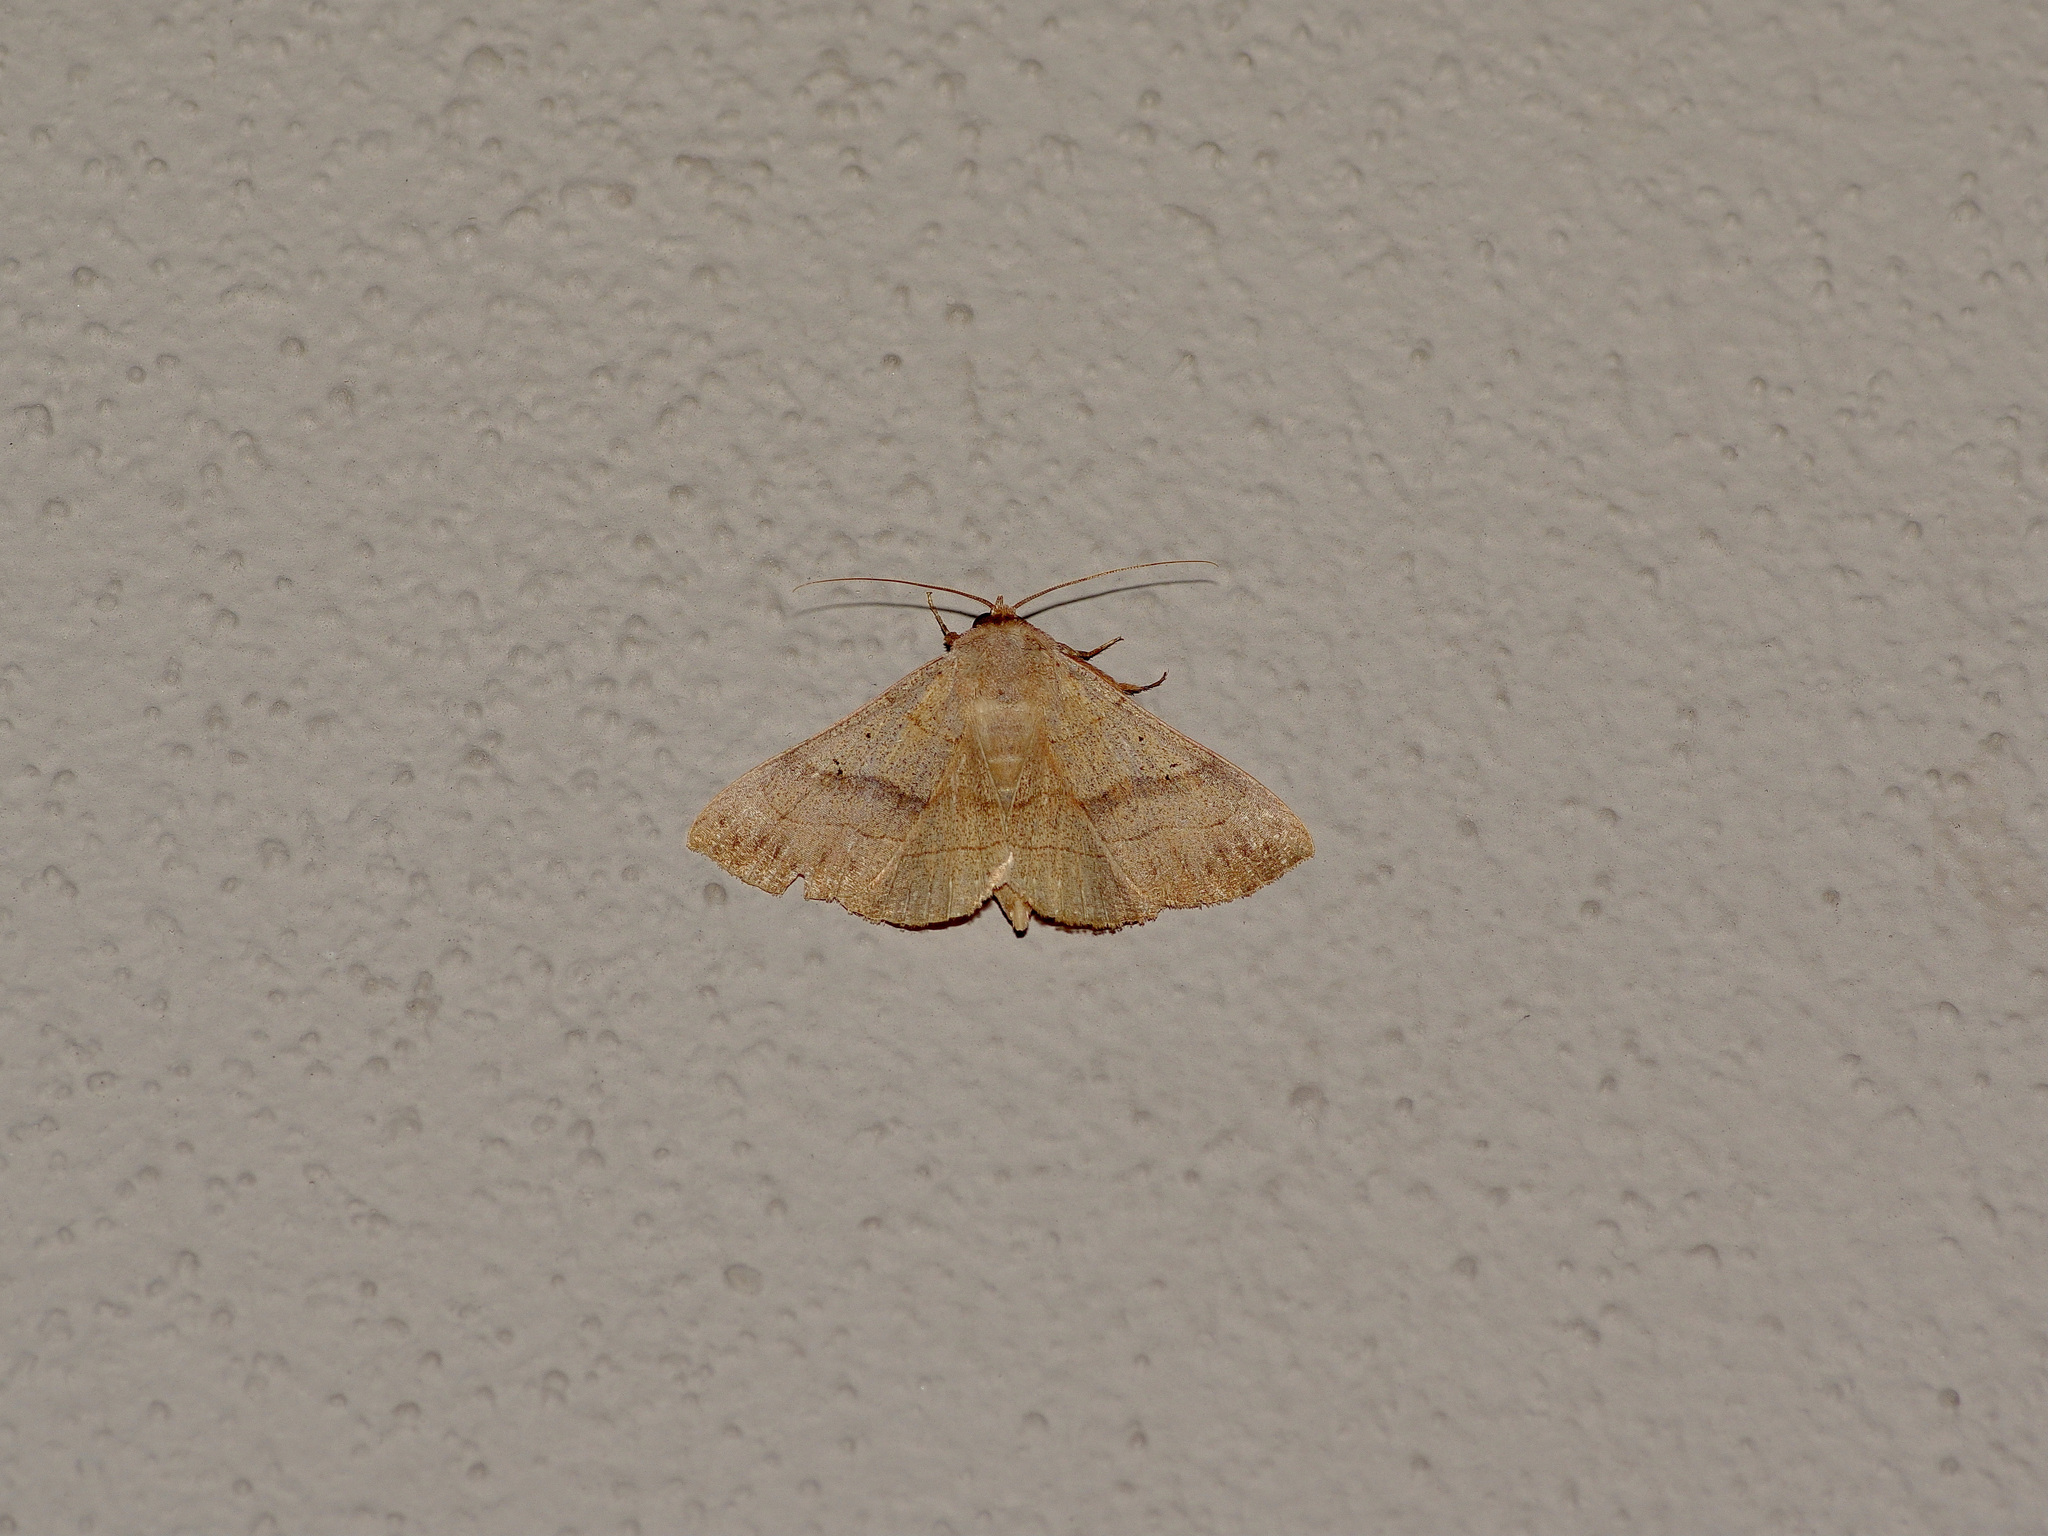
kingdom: Animalia
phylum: Arthropoda
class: Insecta
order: Lepidoptera
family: Erebidae
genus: Panopoda
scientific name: Panopoda rufimargo
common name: Red-lined panopoda moth
